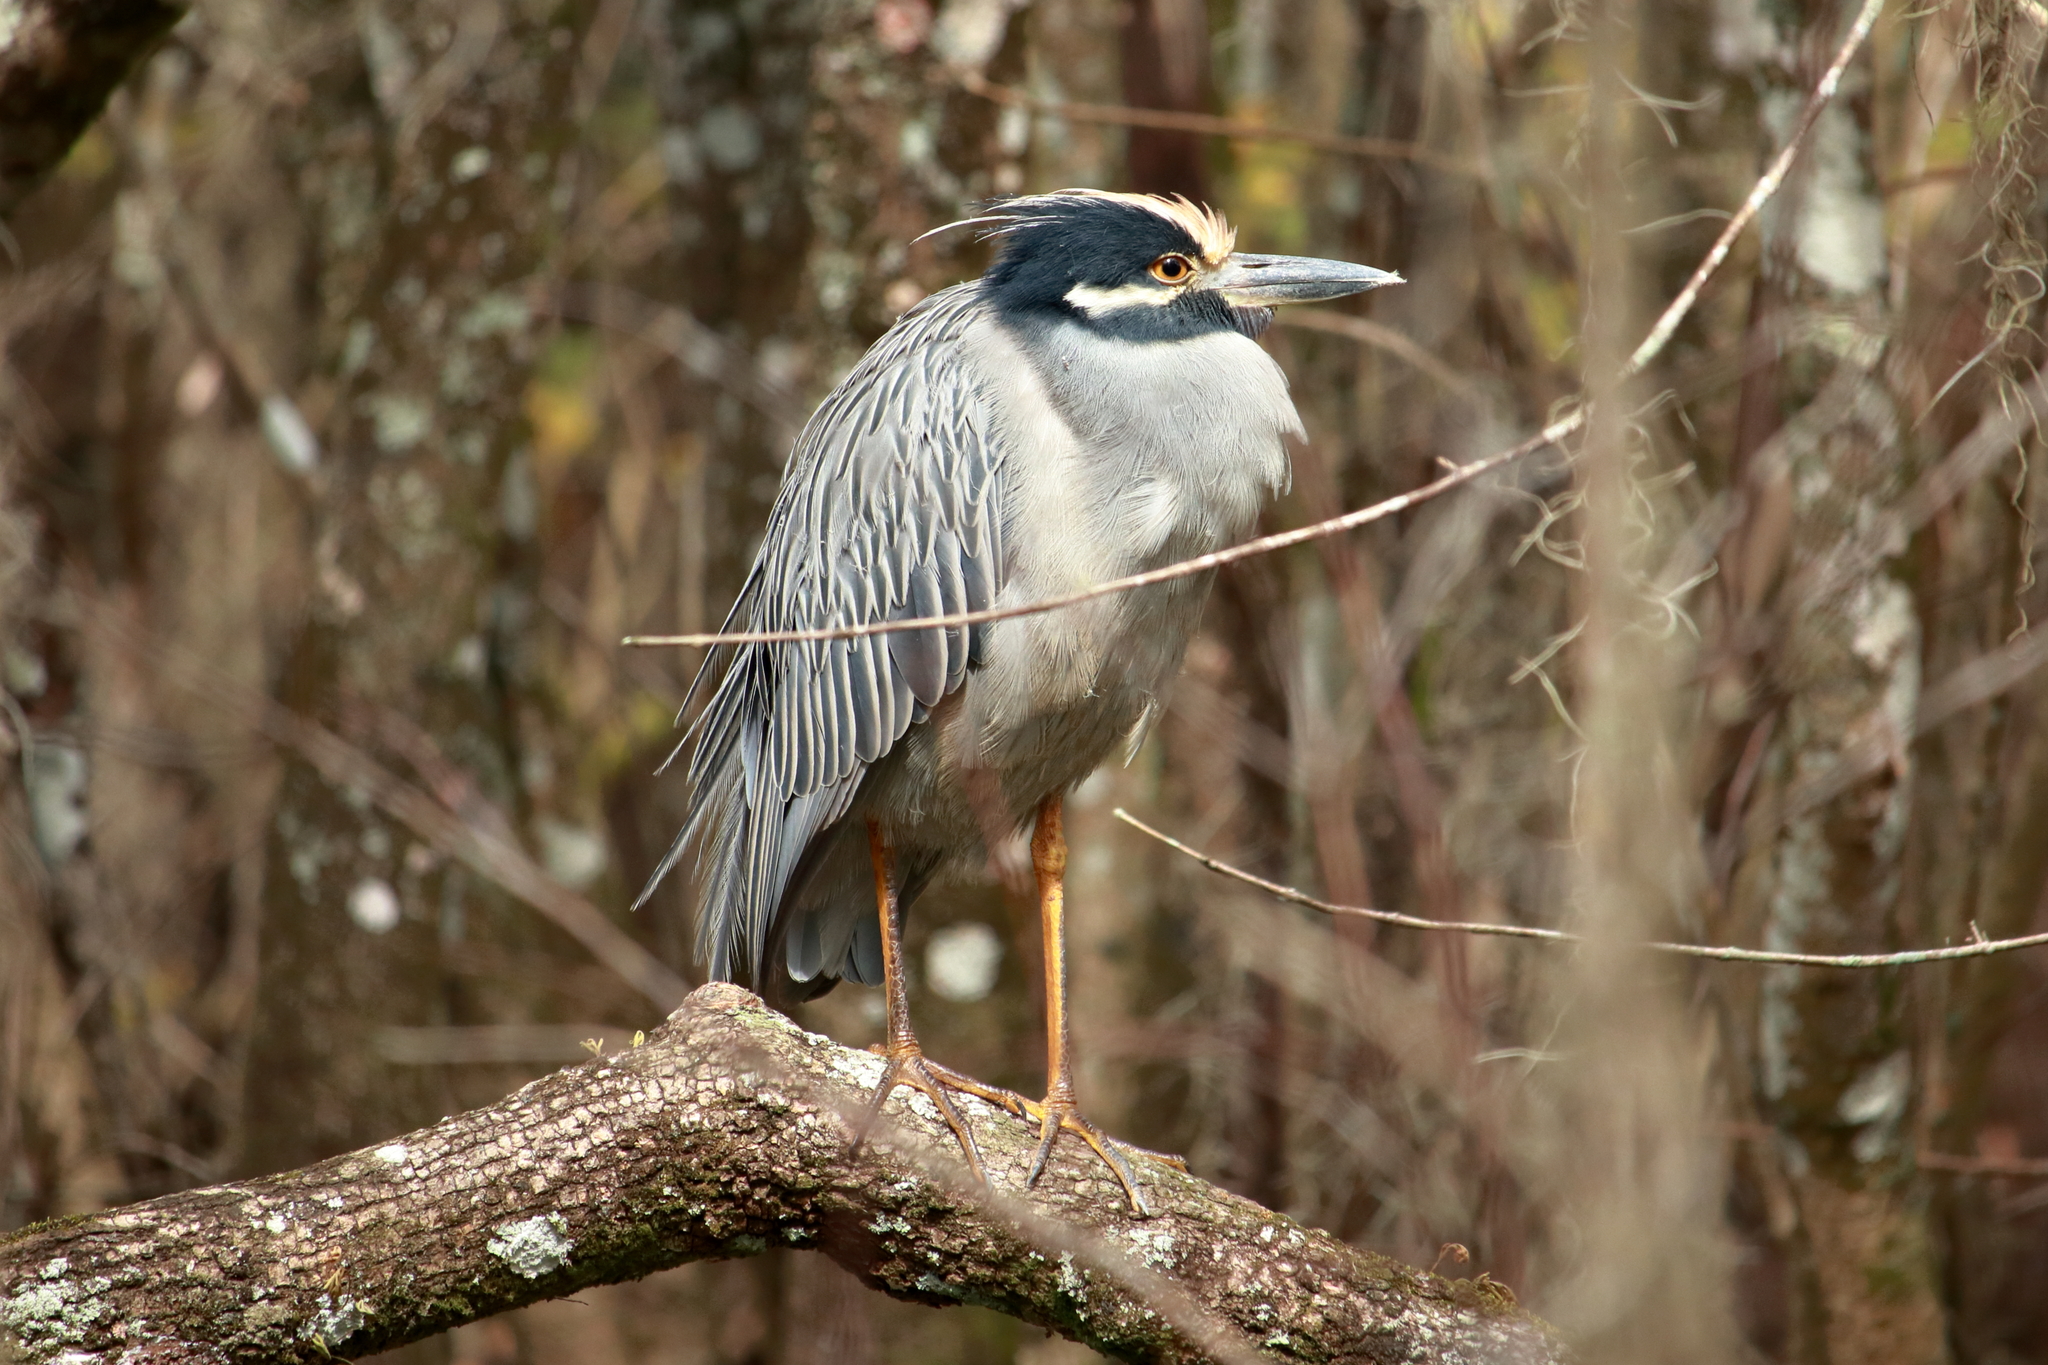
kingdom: Animalia
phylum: Chordata
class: Aves
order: Pelecaniformes
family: Ardeidae
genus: Nyctanassa
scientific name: Nyctanassa violacea
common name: Yellow-crowned night heron
